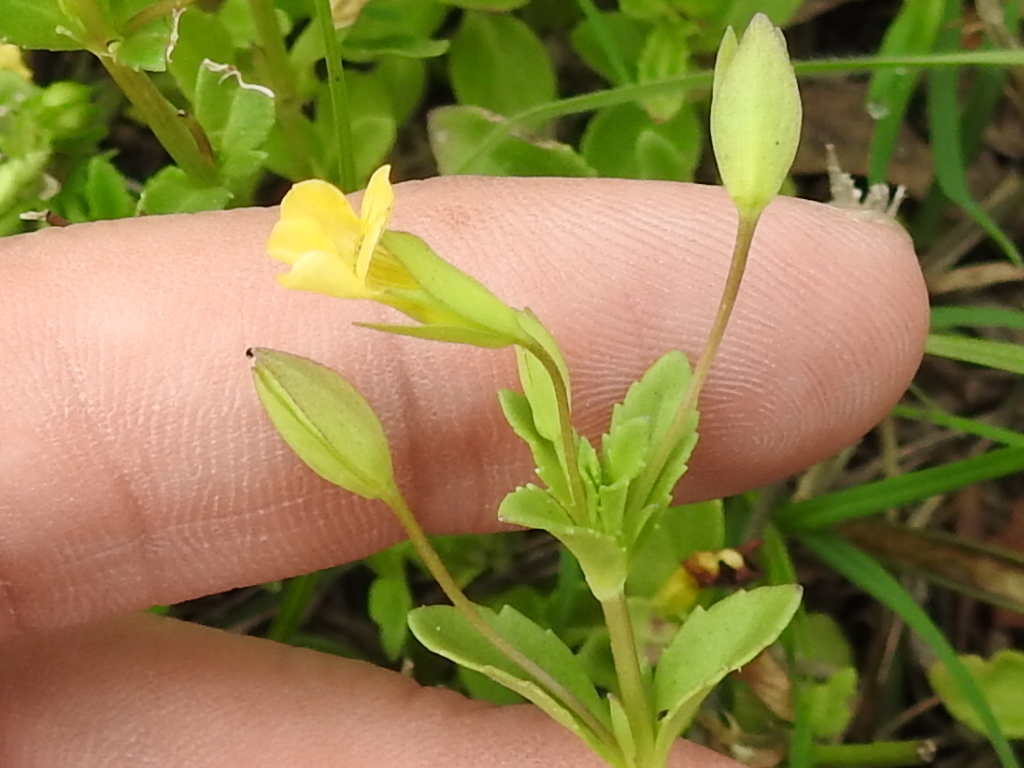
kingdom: Plantae
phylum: Tracheophyta
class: Magnoliopsida
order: Lamiales
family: Plantaginaceae
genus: Mecardonia
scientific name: Mecardonia procumbens
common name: Baby jump-up
